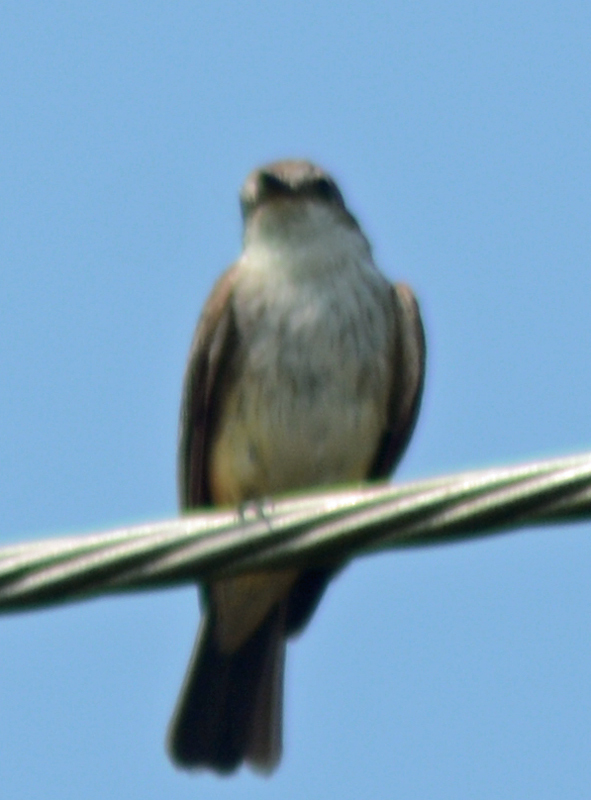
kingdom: Animalia
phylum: Chordata
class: Aves
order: Passeriformes
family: Tyrannidae
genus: Pyrocephalus
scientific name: Pyrocephalus rubinus
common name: Vermilion flycatcher
